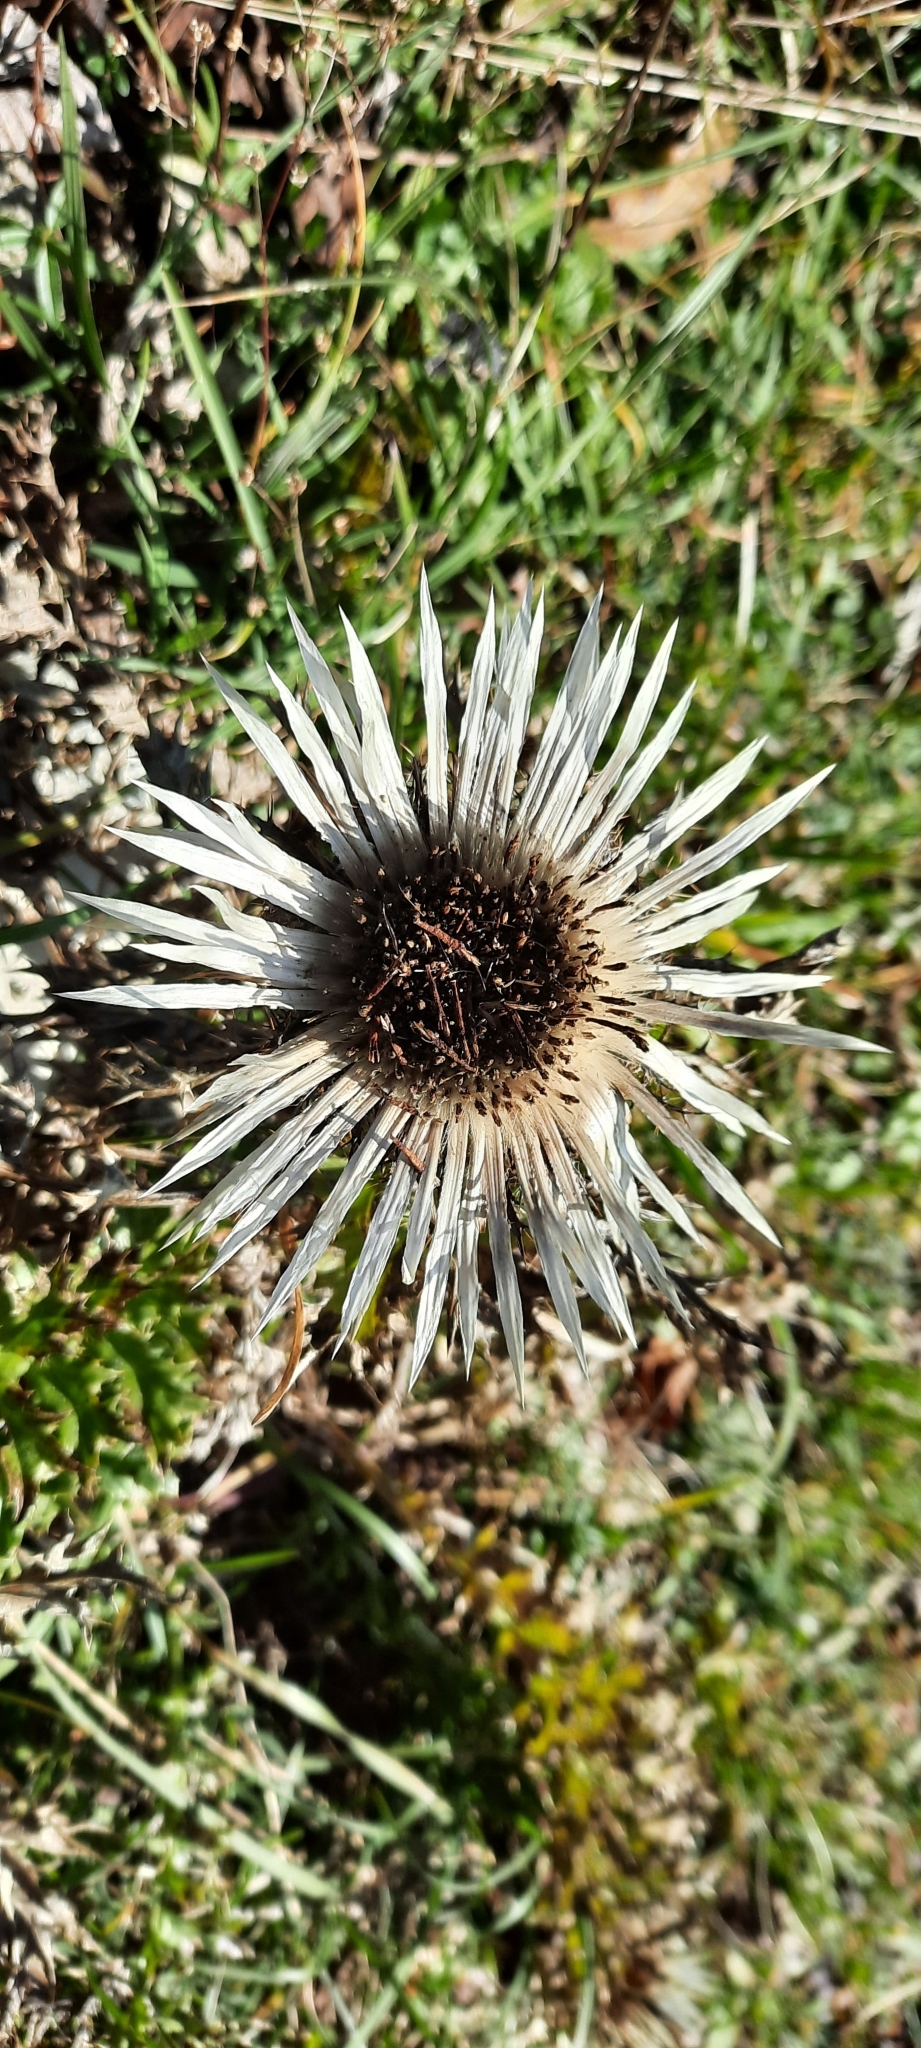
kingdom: Plantae
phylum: Tracheophyta
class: Magnoliopsida
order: Asterales
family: Asteraceae
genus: Carlina
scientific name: Carlina acaulis
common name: Stemless carline thistle
